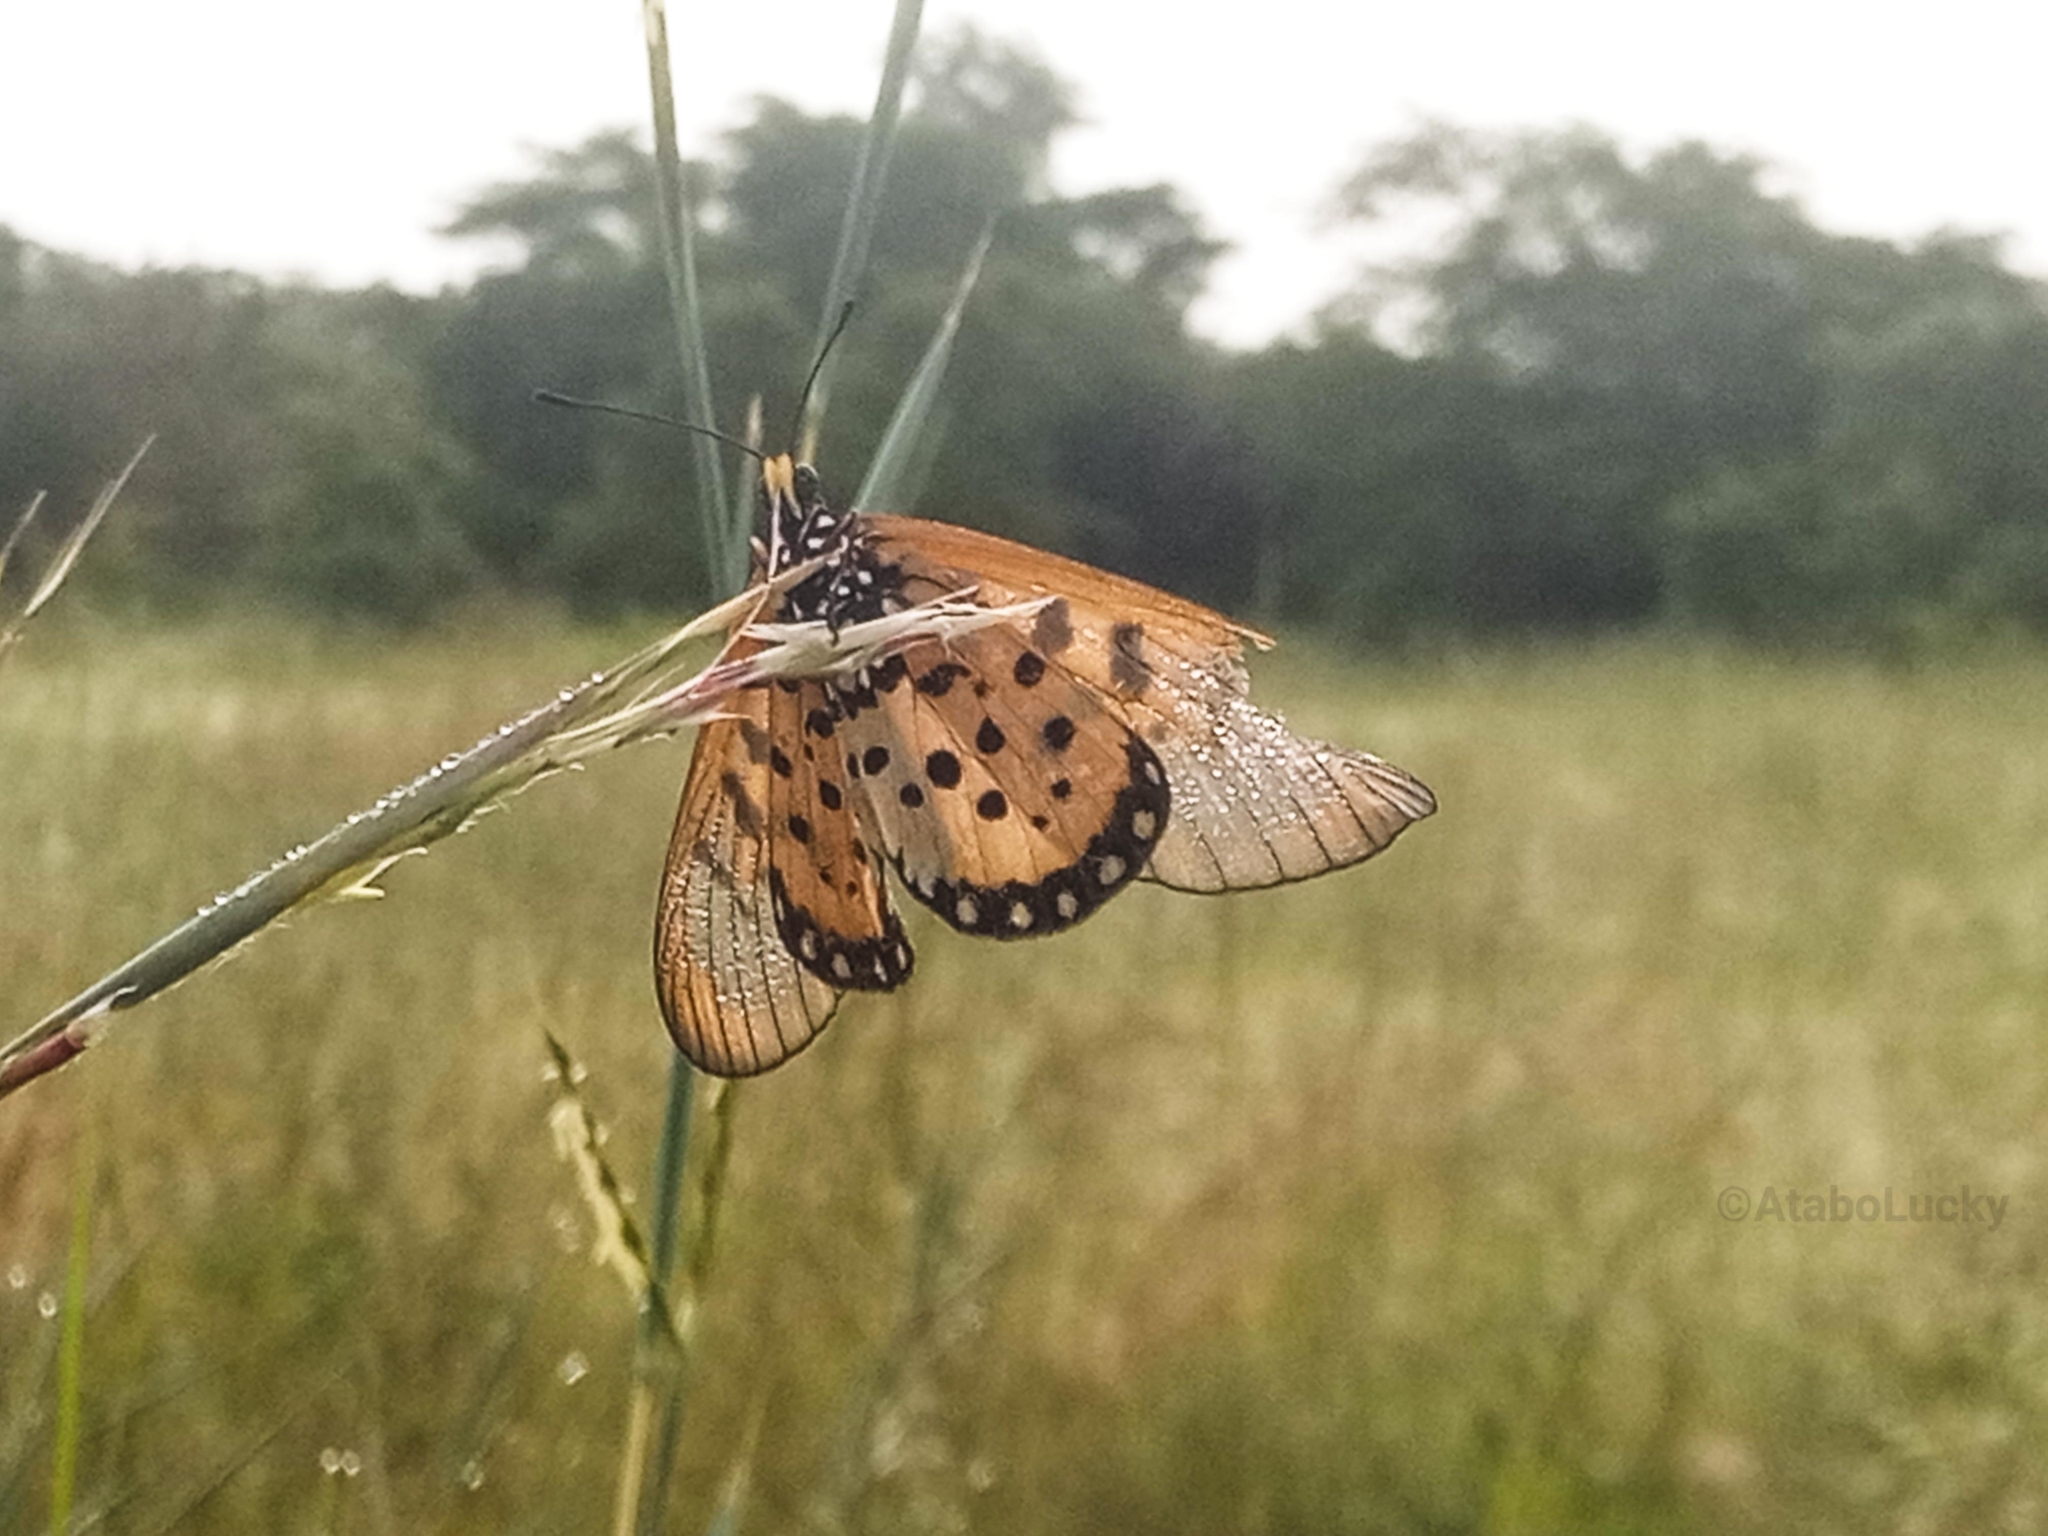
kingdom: Animalia
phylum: Arthropoda
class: Insecta
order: Lepidoptera
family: Nymphalidae
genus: Acraea
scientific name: Acraea neobule
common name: Dancing acraea
